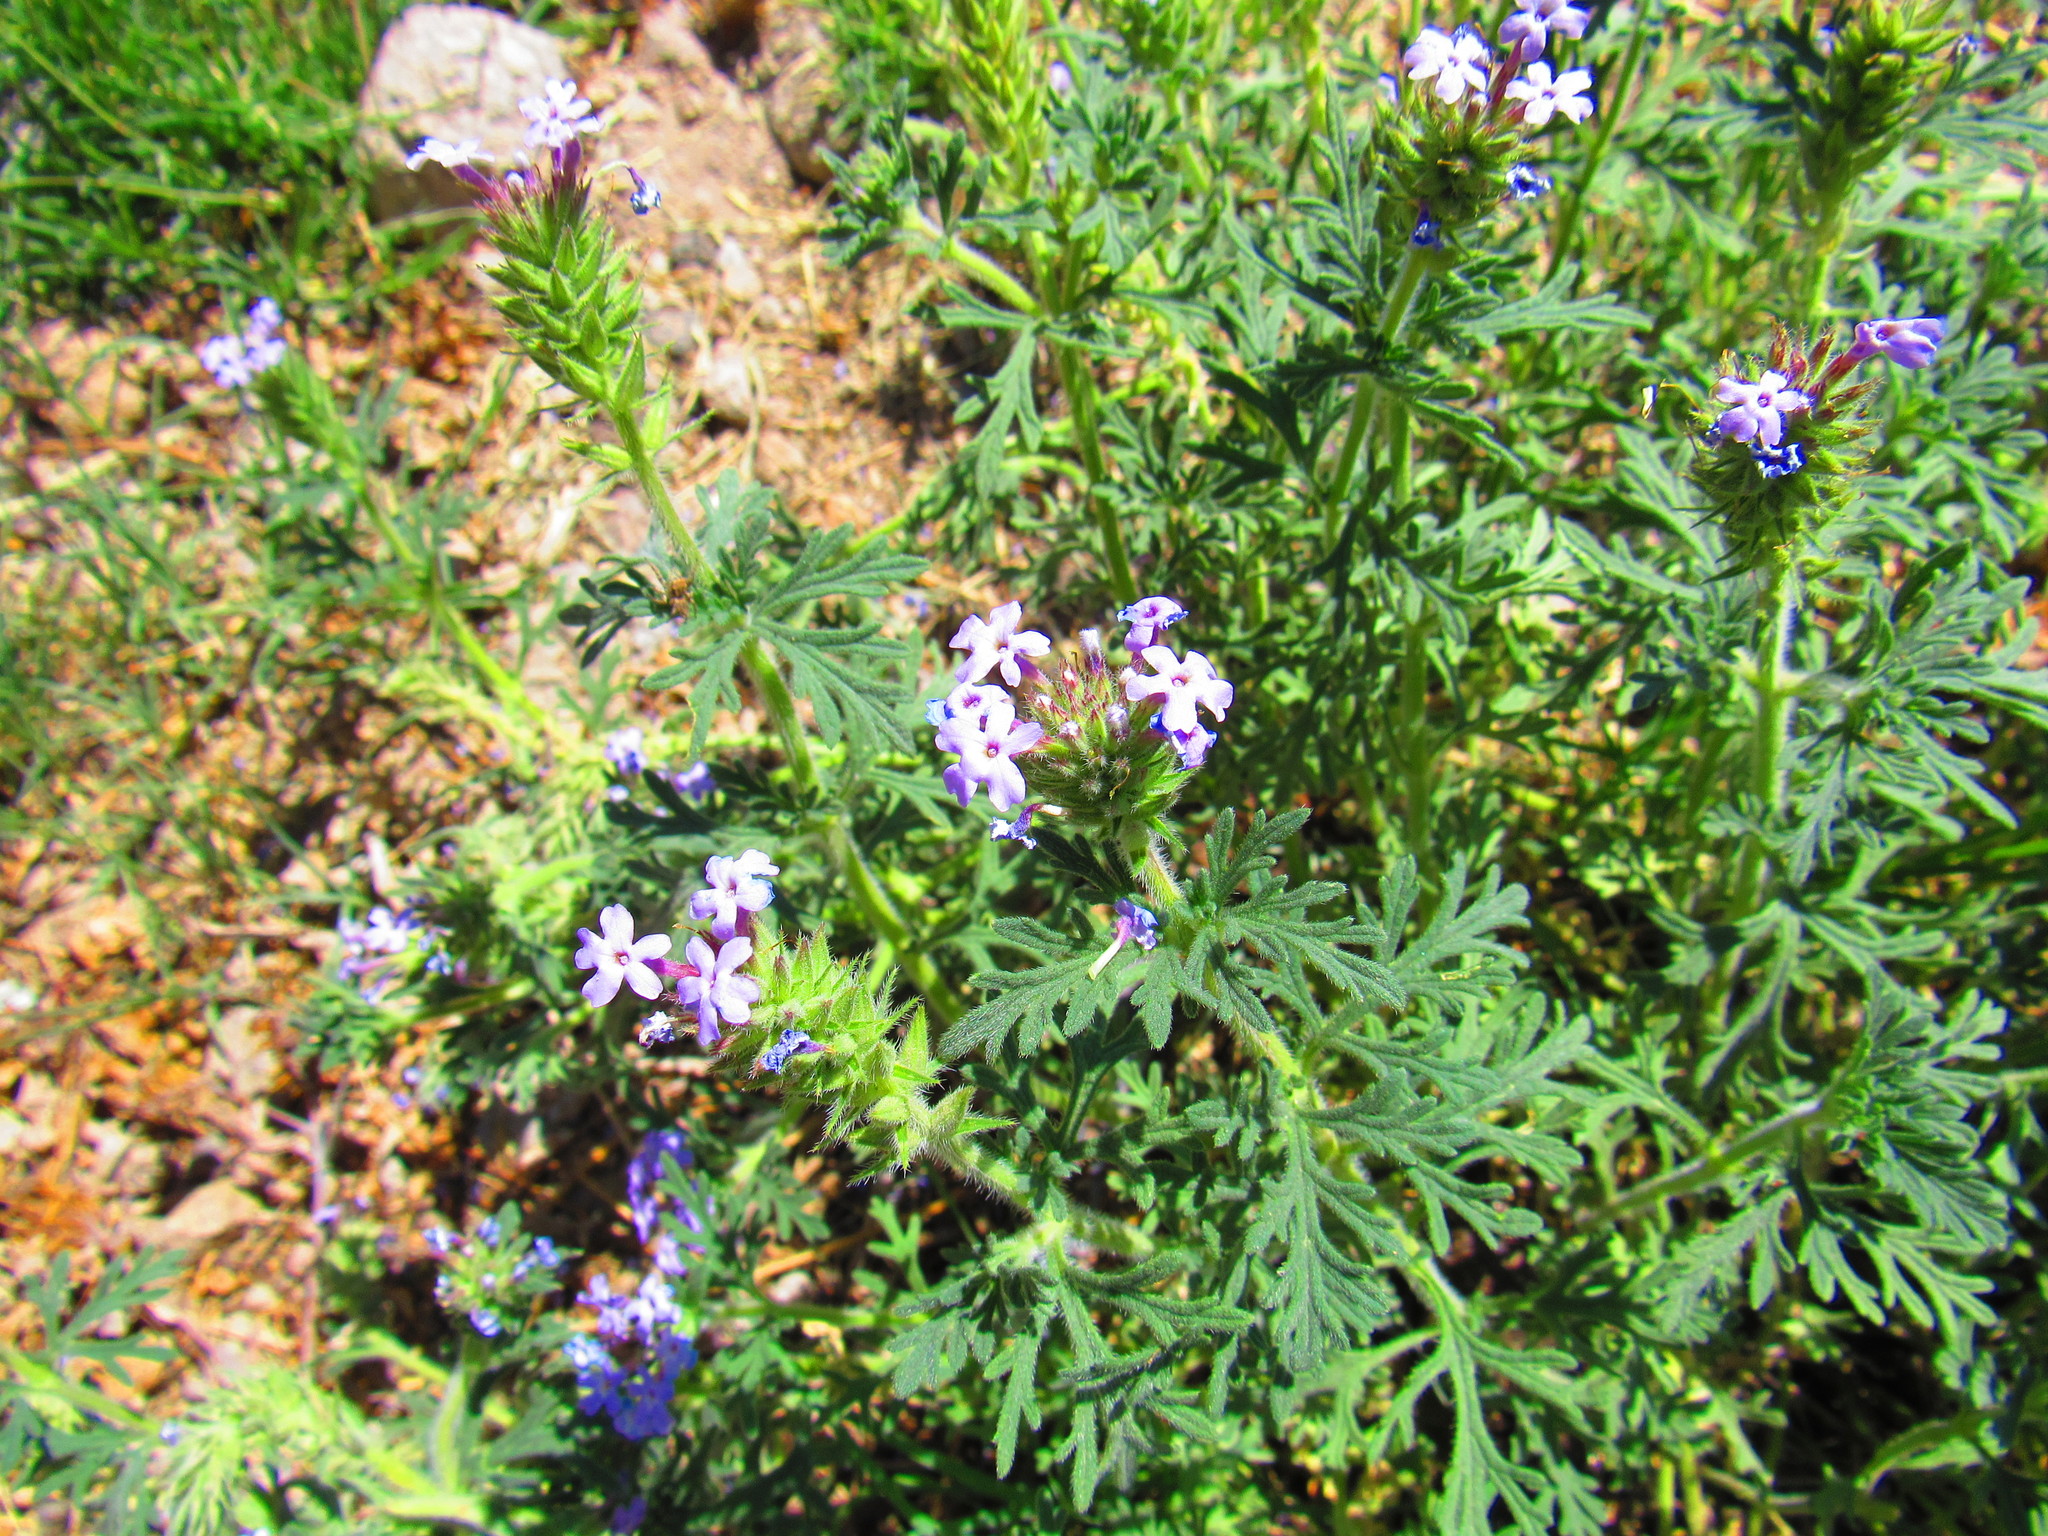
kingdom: Plantae
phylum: Tracheophyta
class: Magnoliopsida
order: Lamiales
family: Verbenaceae
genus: Verbena
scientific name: Verbena bipinnatifida
